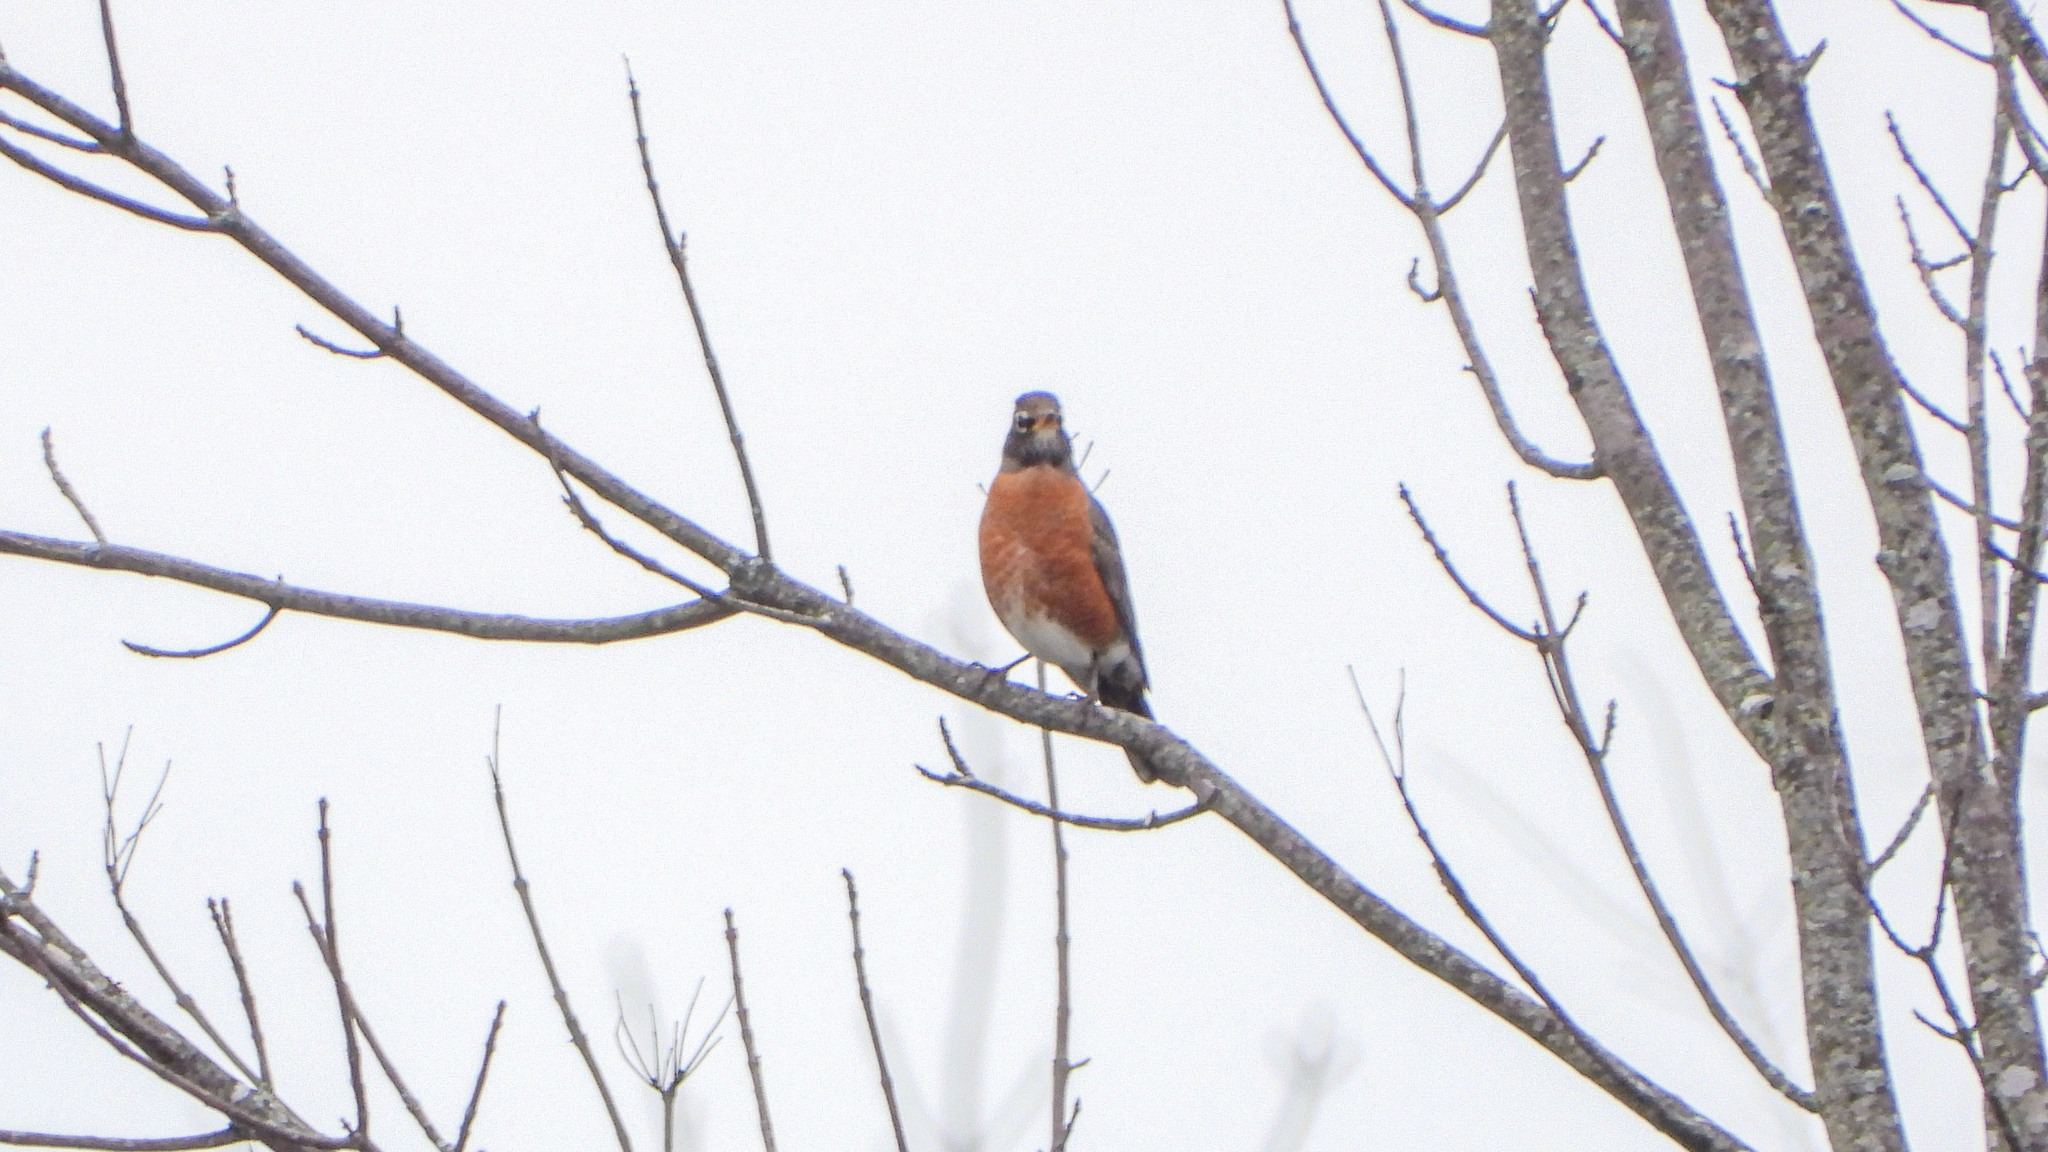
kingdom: Animalia
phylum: Chordata
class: Aves
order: Passeriformes
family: Turdidae
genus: Turdus
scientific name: Turdus migratorius
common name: American robin
